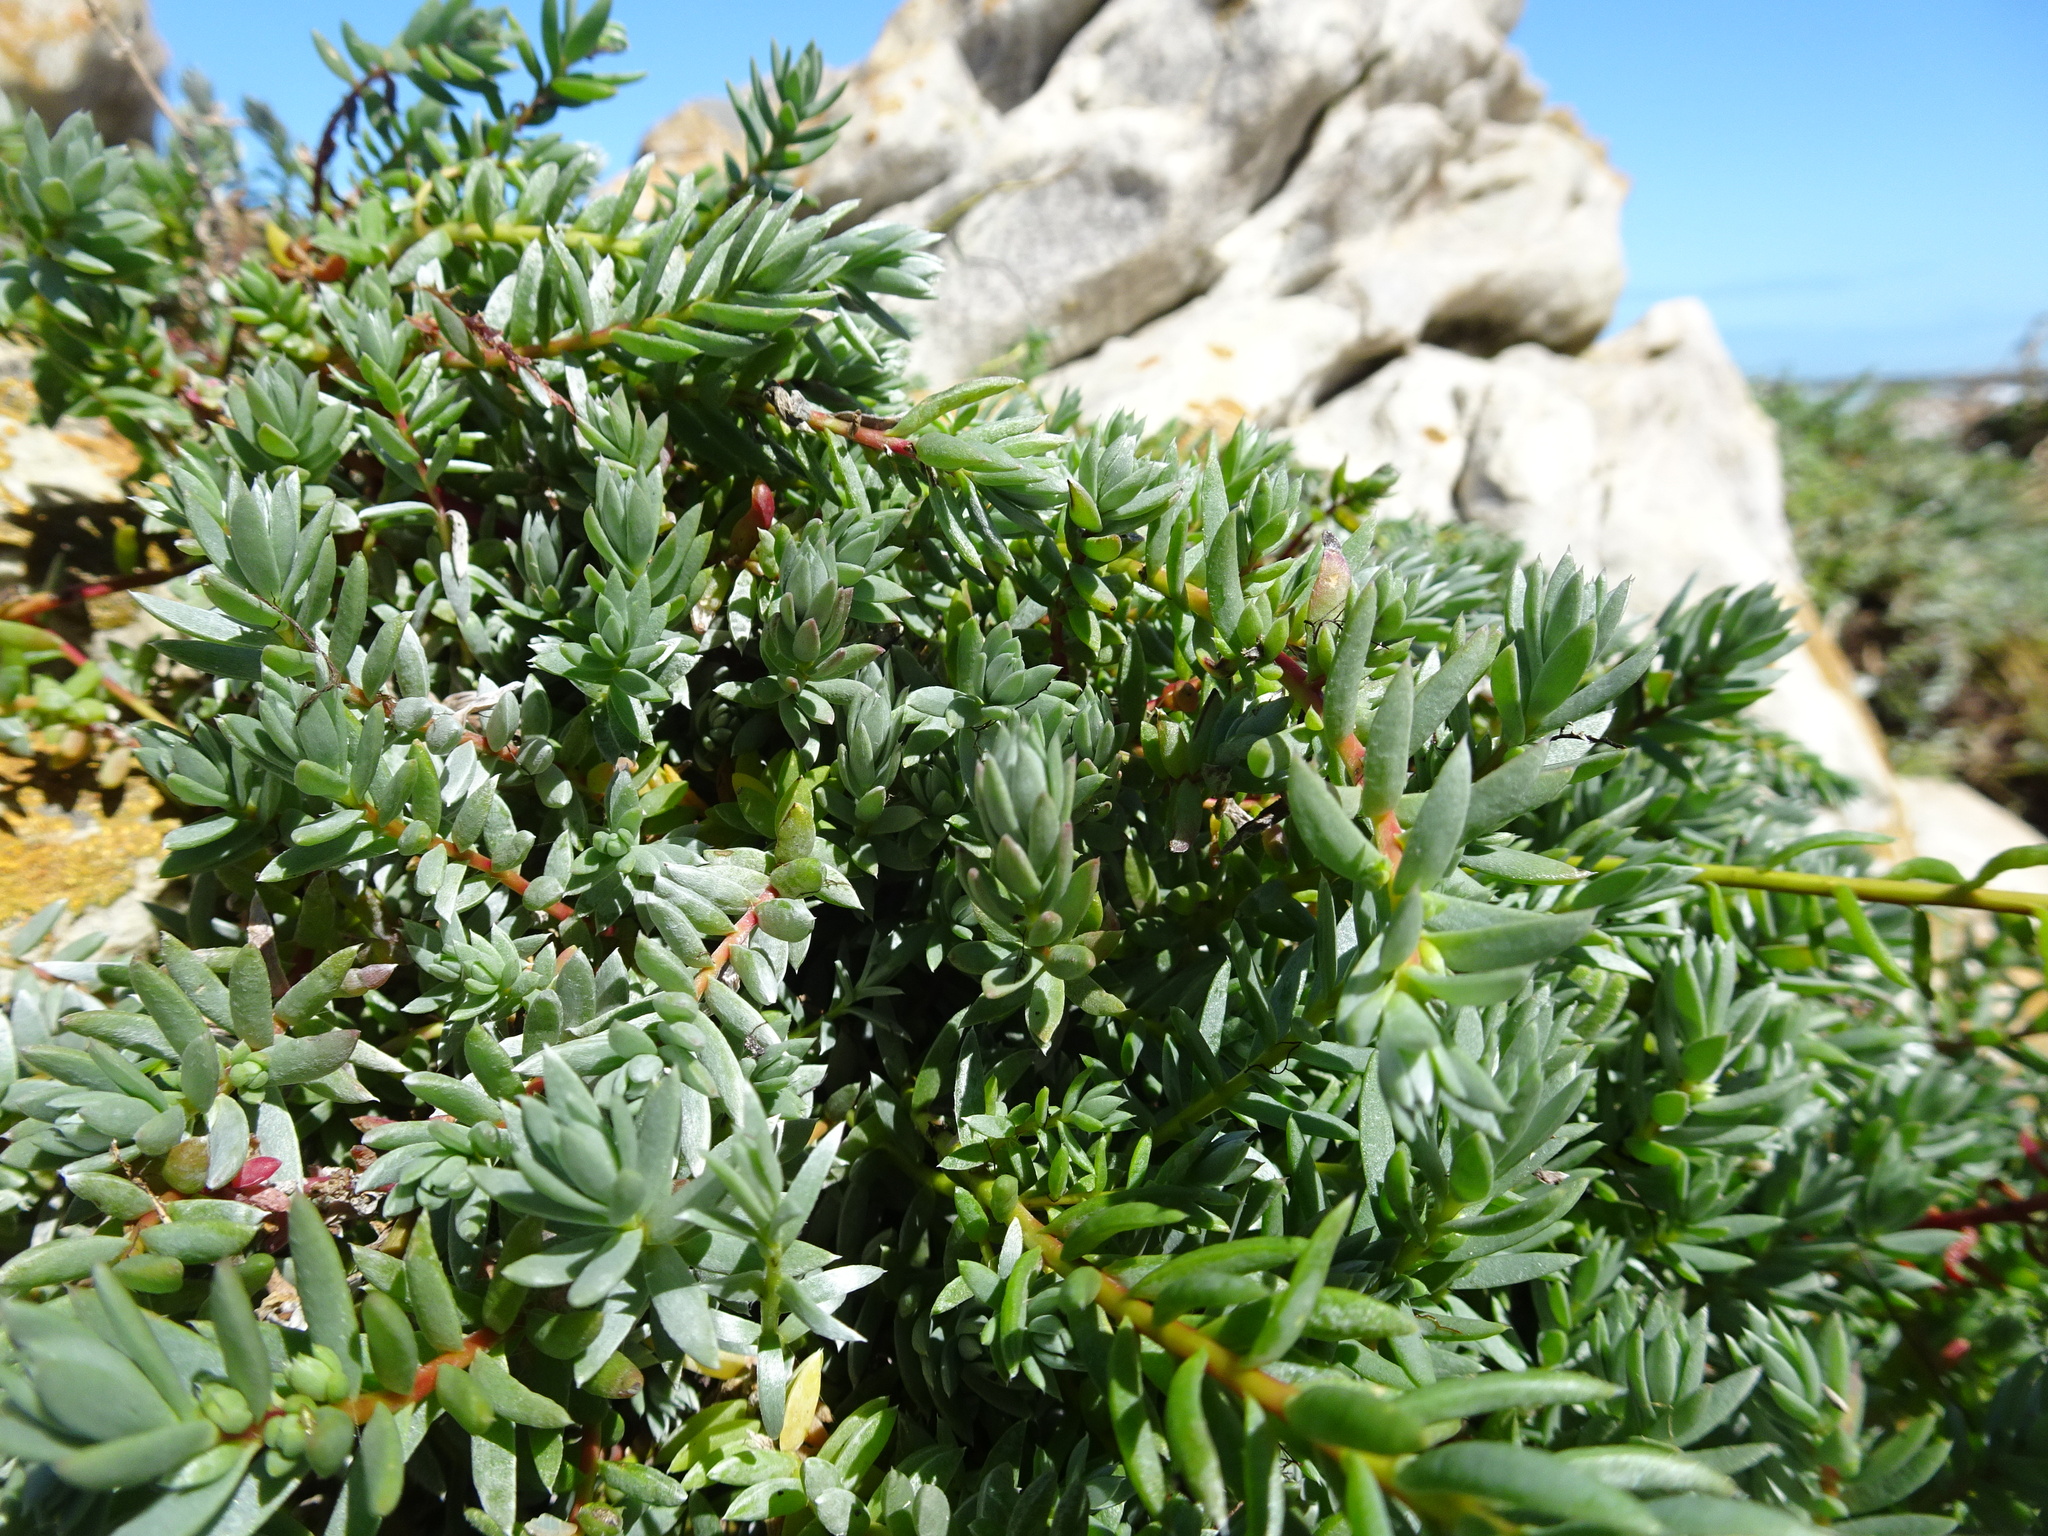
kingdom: Plantae
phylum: Tracheophyta
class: Magnoliopsida
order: Caryophyllales
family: Amaranthaceae
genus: Chenolea
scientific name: Chenolea diffusa
